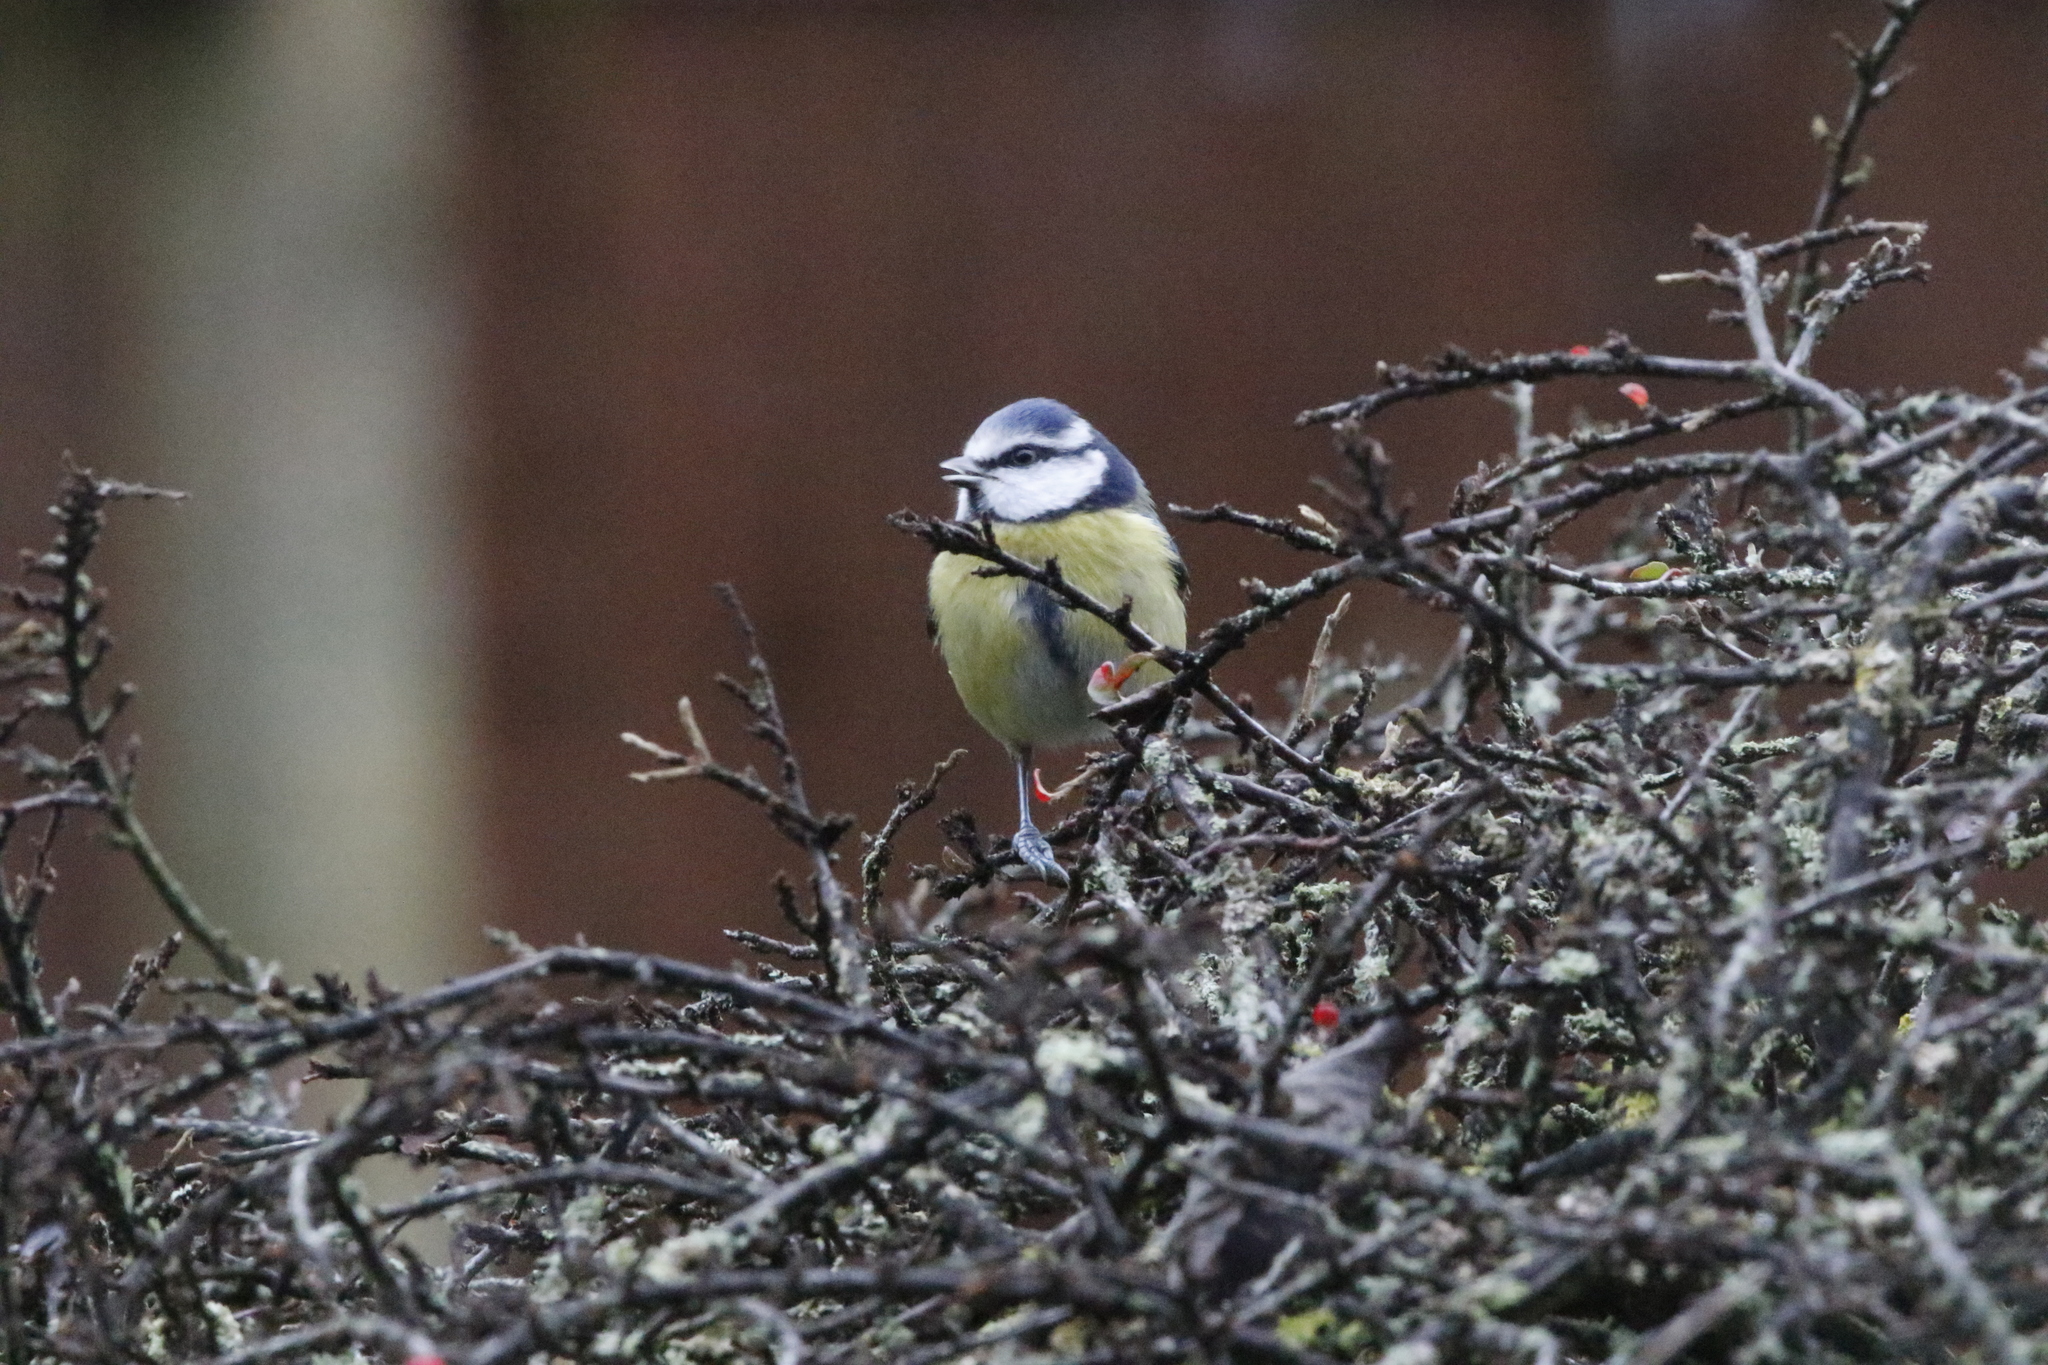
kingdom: Animalia
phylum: Chordata
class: Aves
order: Passeriformes
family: Paridae
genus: Cyanistes
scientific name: Cyanistes caeruleus
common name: Eurasian blue tit
